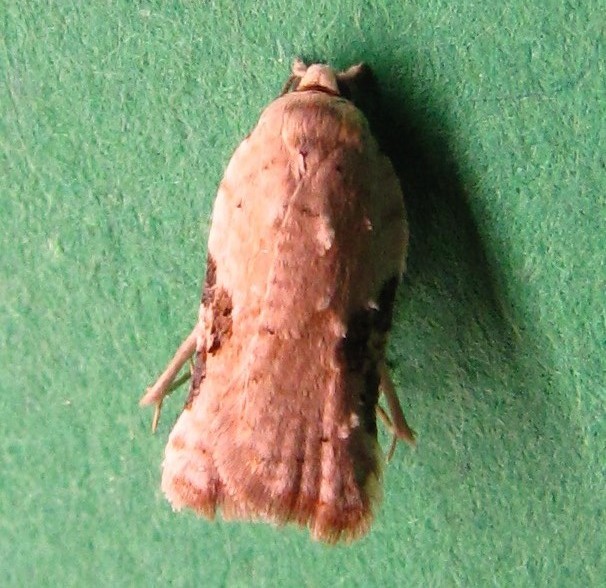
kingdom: Animalia
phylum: Arthropoda
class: Insecta
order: Lepidoptera
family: Tortricidae
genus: Acleris
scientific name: Acleris subnivana
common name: Bent-winged acleris moth
